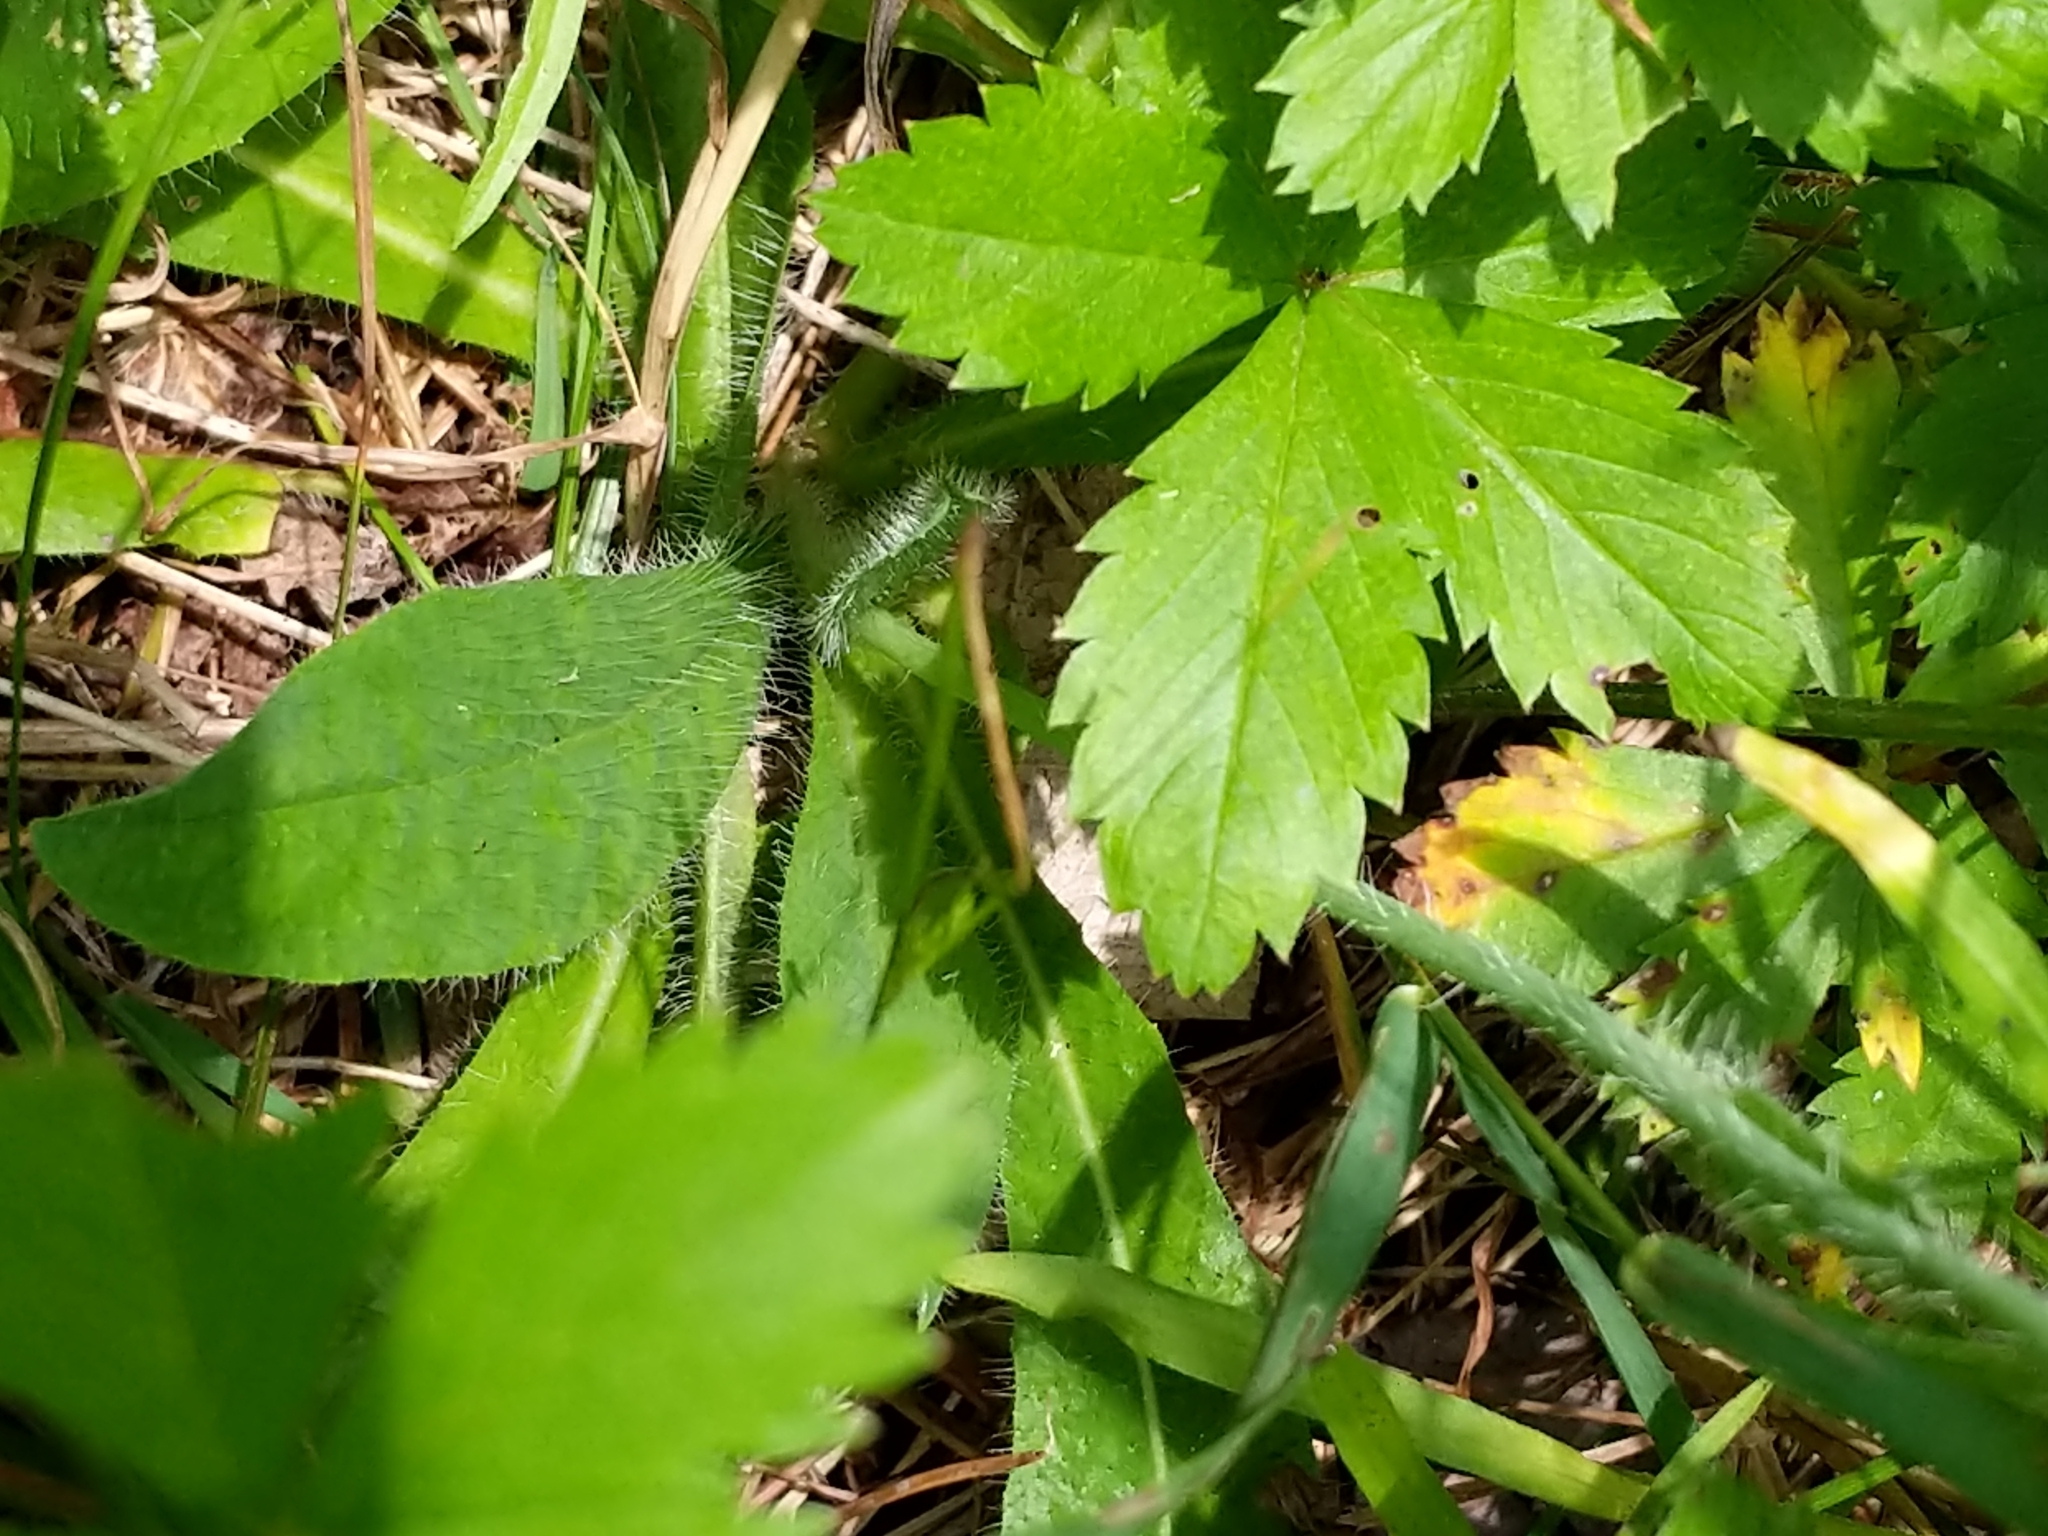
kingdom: Plantae
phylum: Tracheophyta
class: Magnoliopsida
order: Asterales
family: Asteraceae
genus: Pilosella
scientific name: Pilosella aurantiaca
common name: Fox-and-cubs
